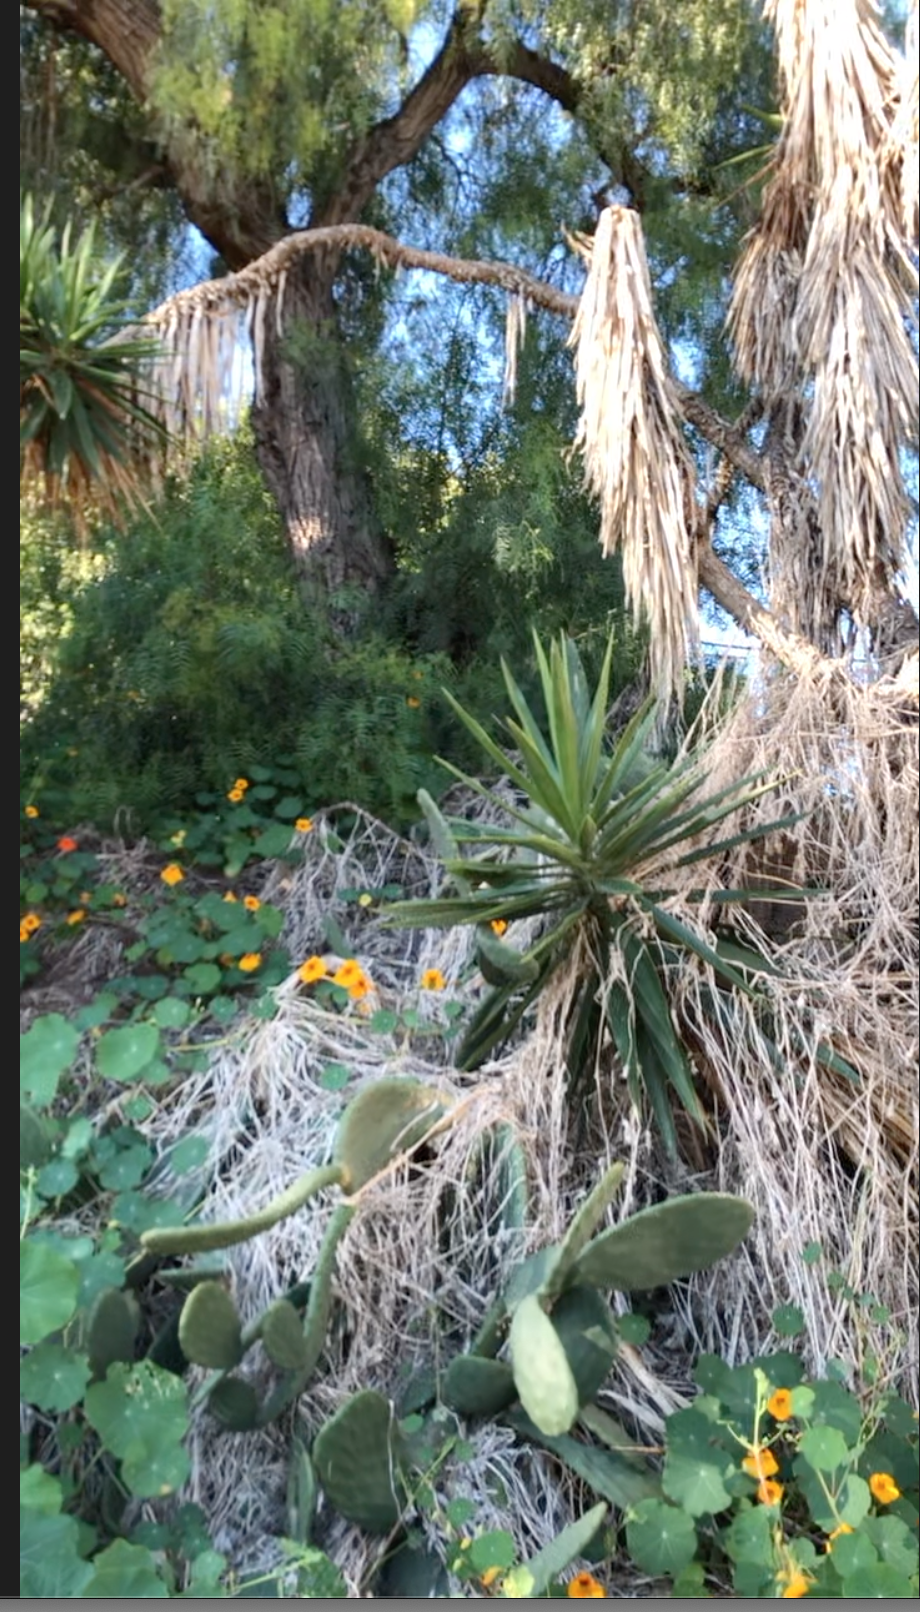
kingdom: Plantae
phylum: Tracheophyta
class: Magnoliopsida
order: Sapindales
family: Anacardiaceae
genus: Schinus
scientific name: Schinus molle
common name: Peruvian peppertree
